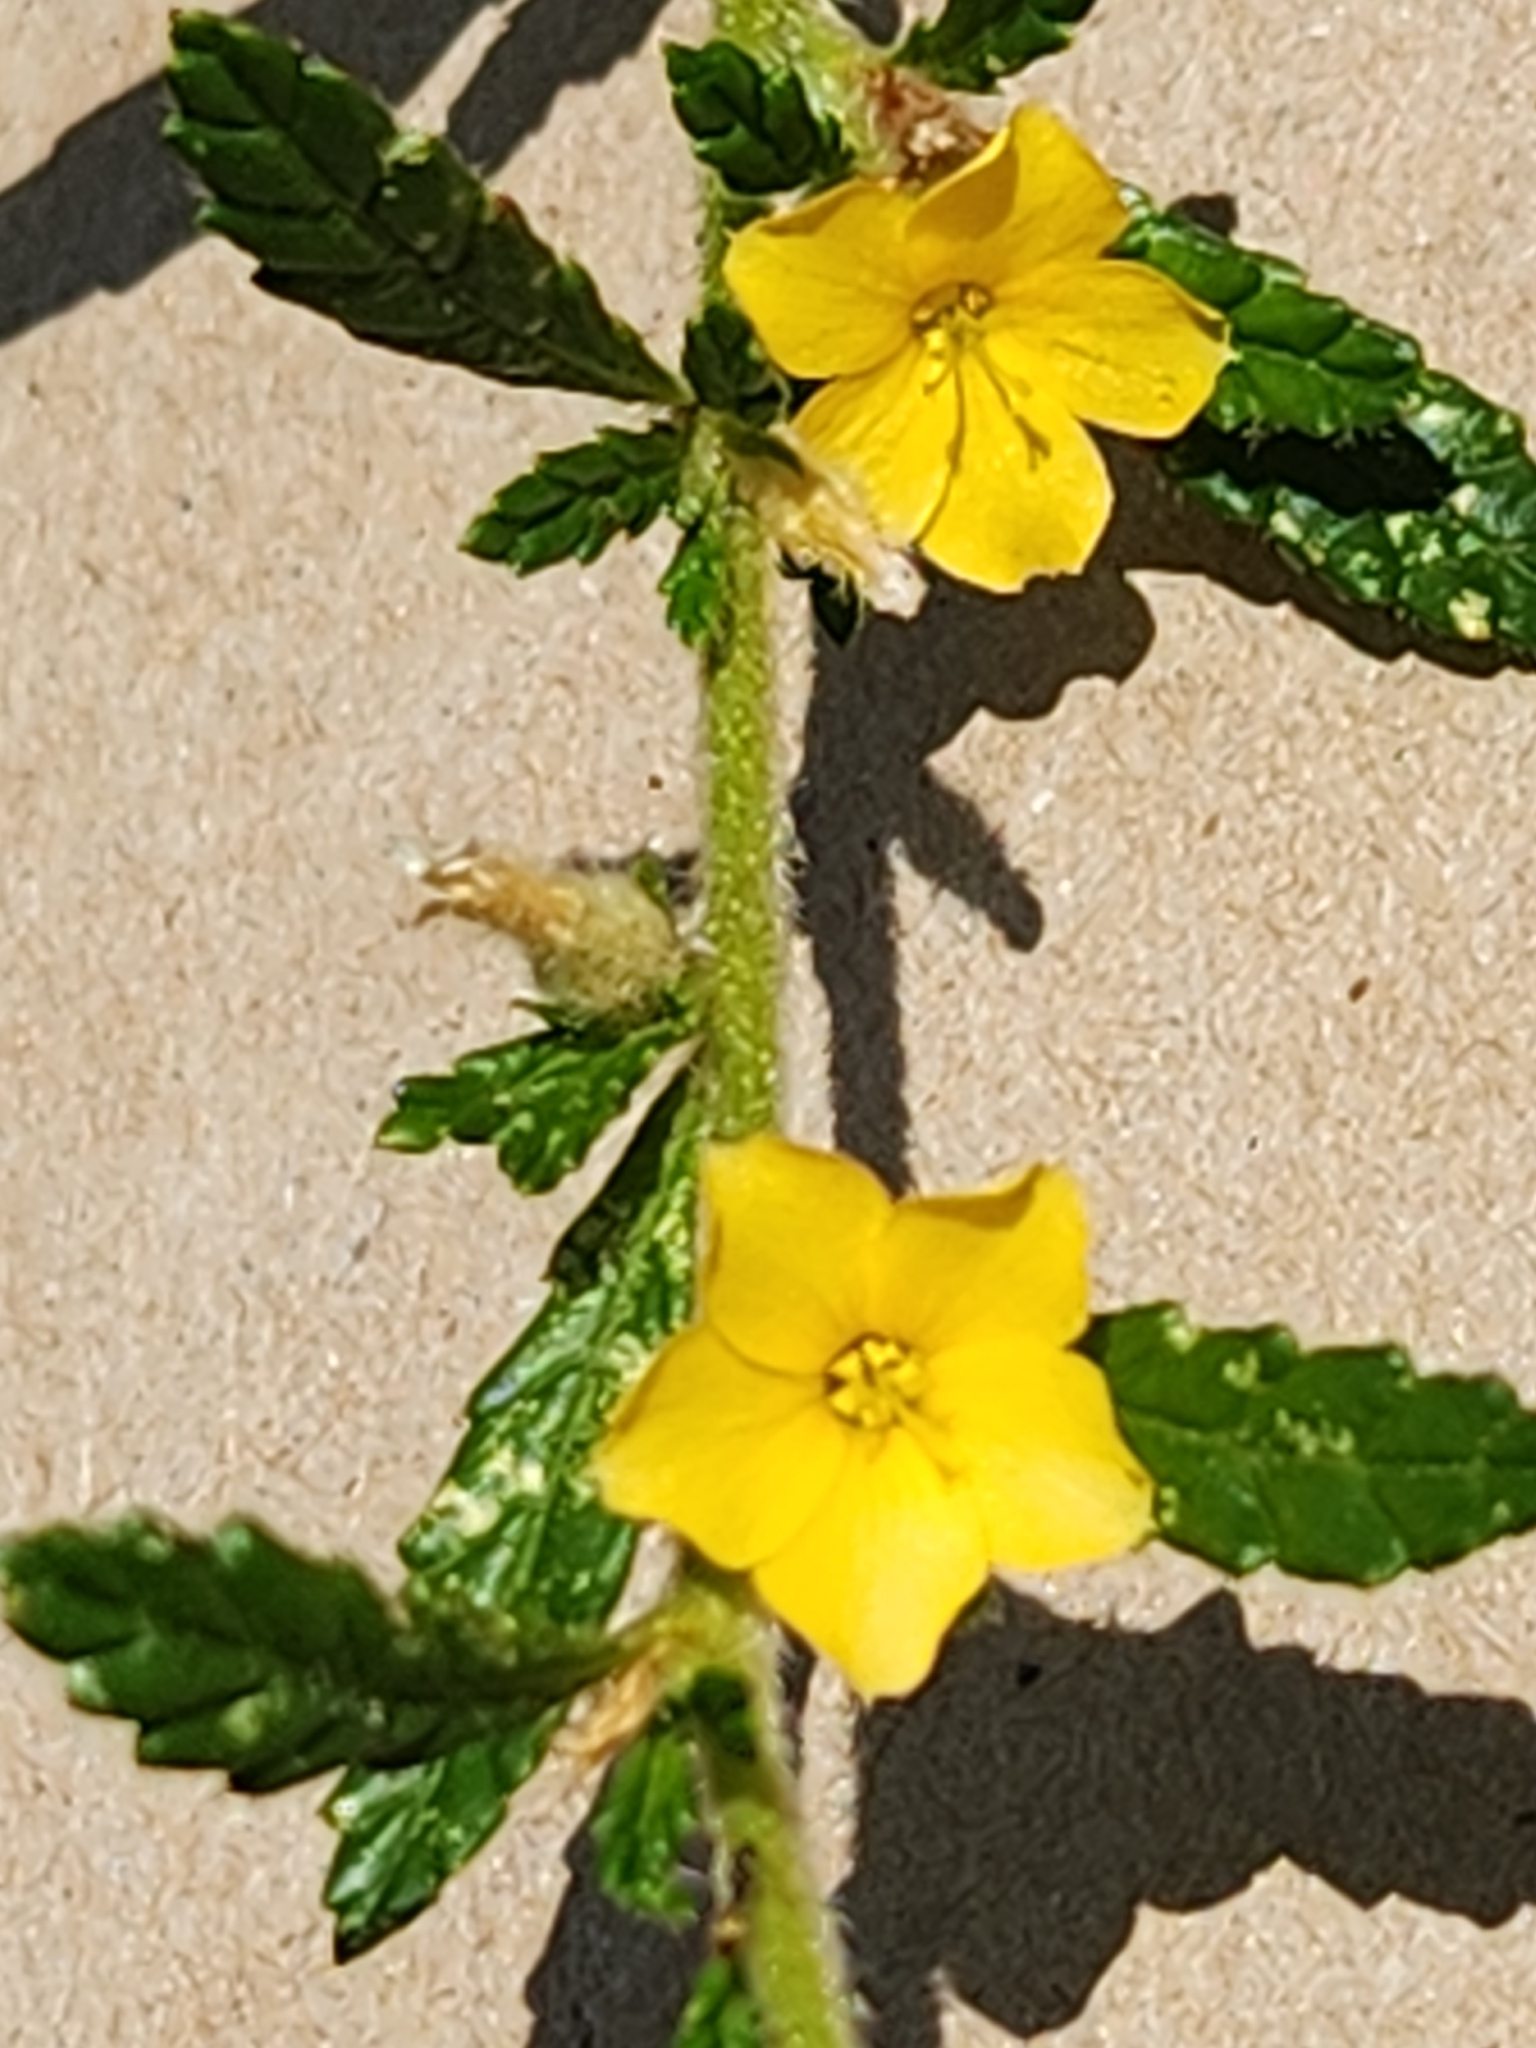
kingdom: Plantae
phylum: Tracheophyta
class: Magnoliopsida
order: Malpighiales
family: Turneraceae
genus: Turnera
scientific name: Turnera diffusa
